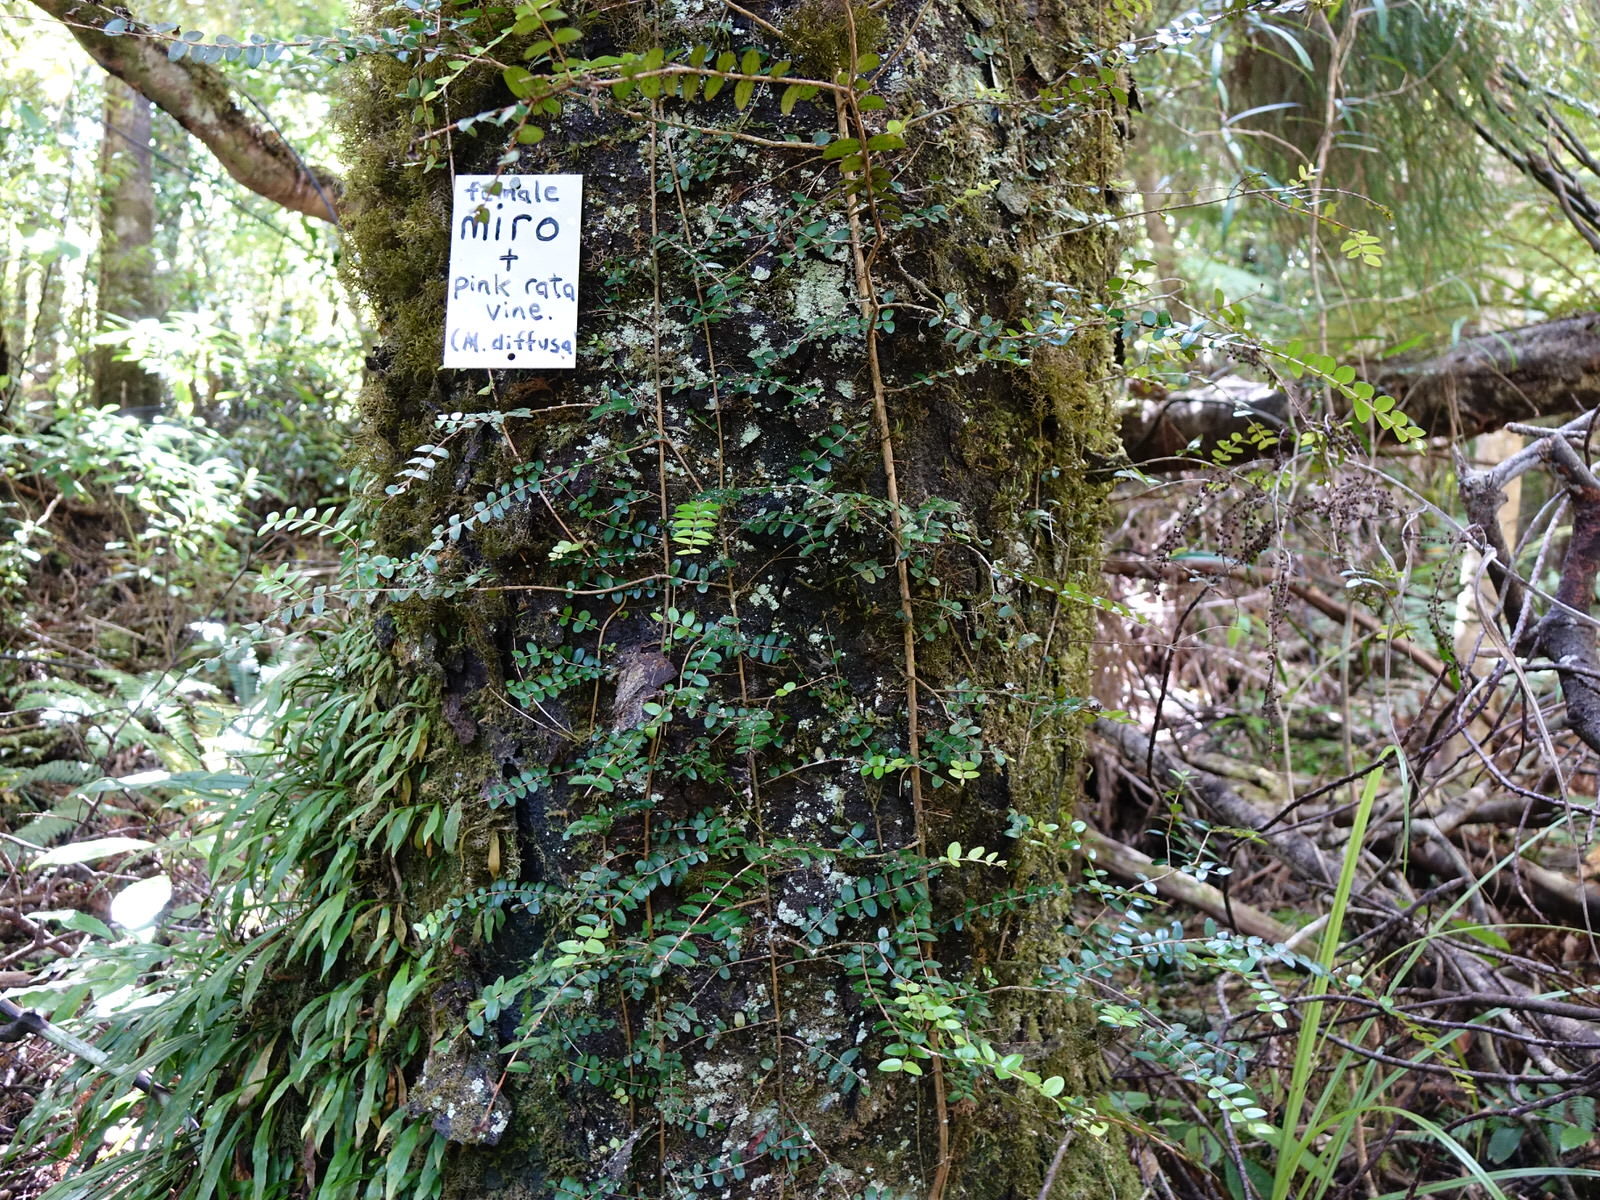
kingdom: Plantae
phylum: Tracheophyta
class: Magnoliopsida
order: Myrtales
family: Myrtaceae
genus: Metrosideros
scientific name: Metrosideros diffusa
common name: Small ratavine
